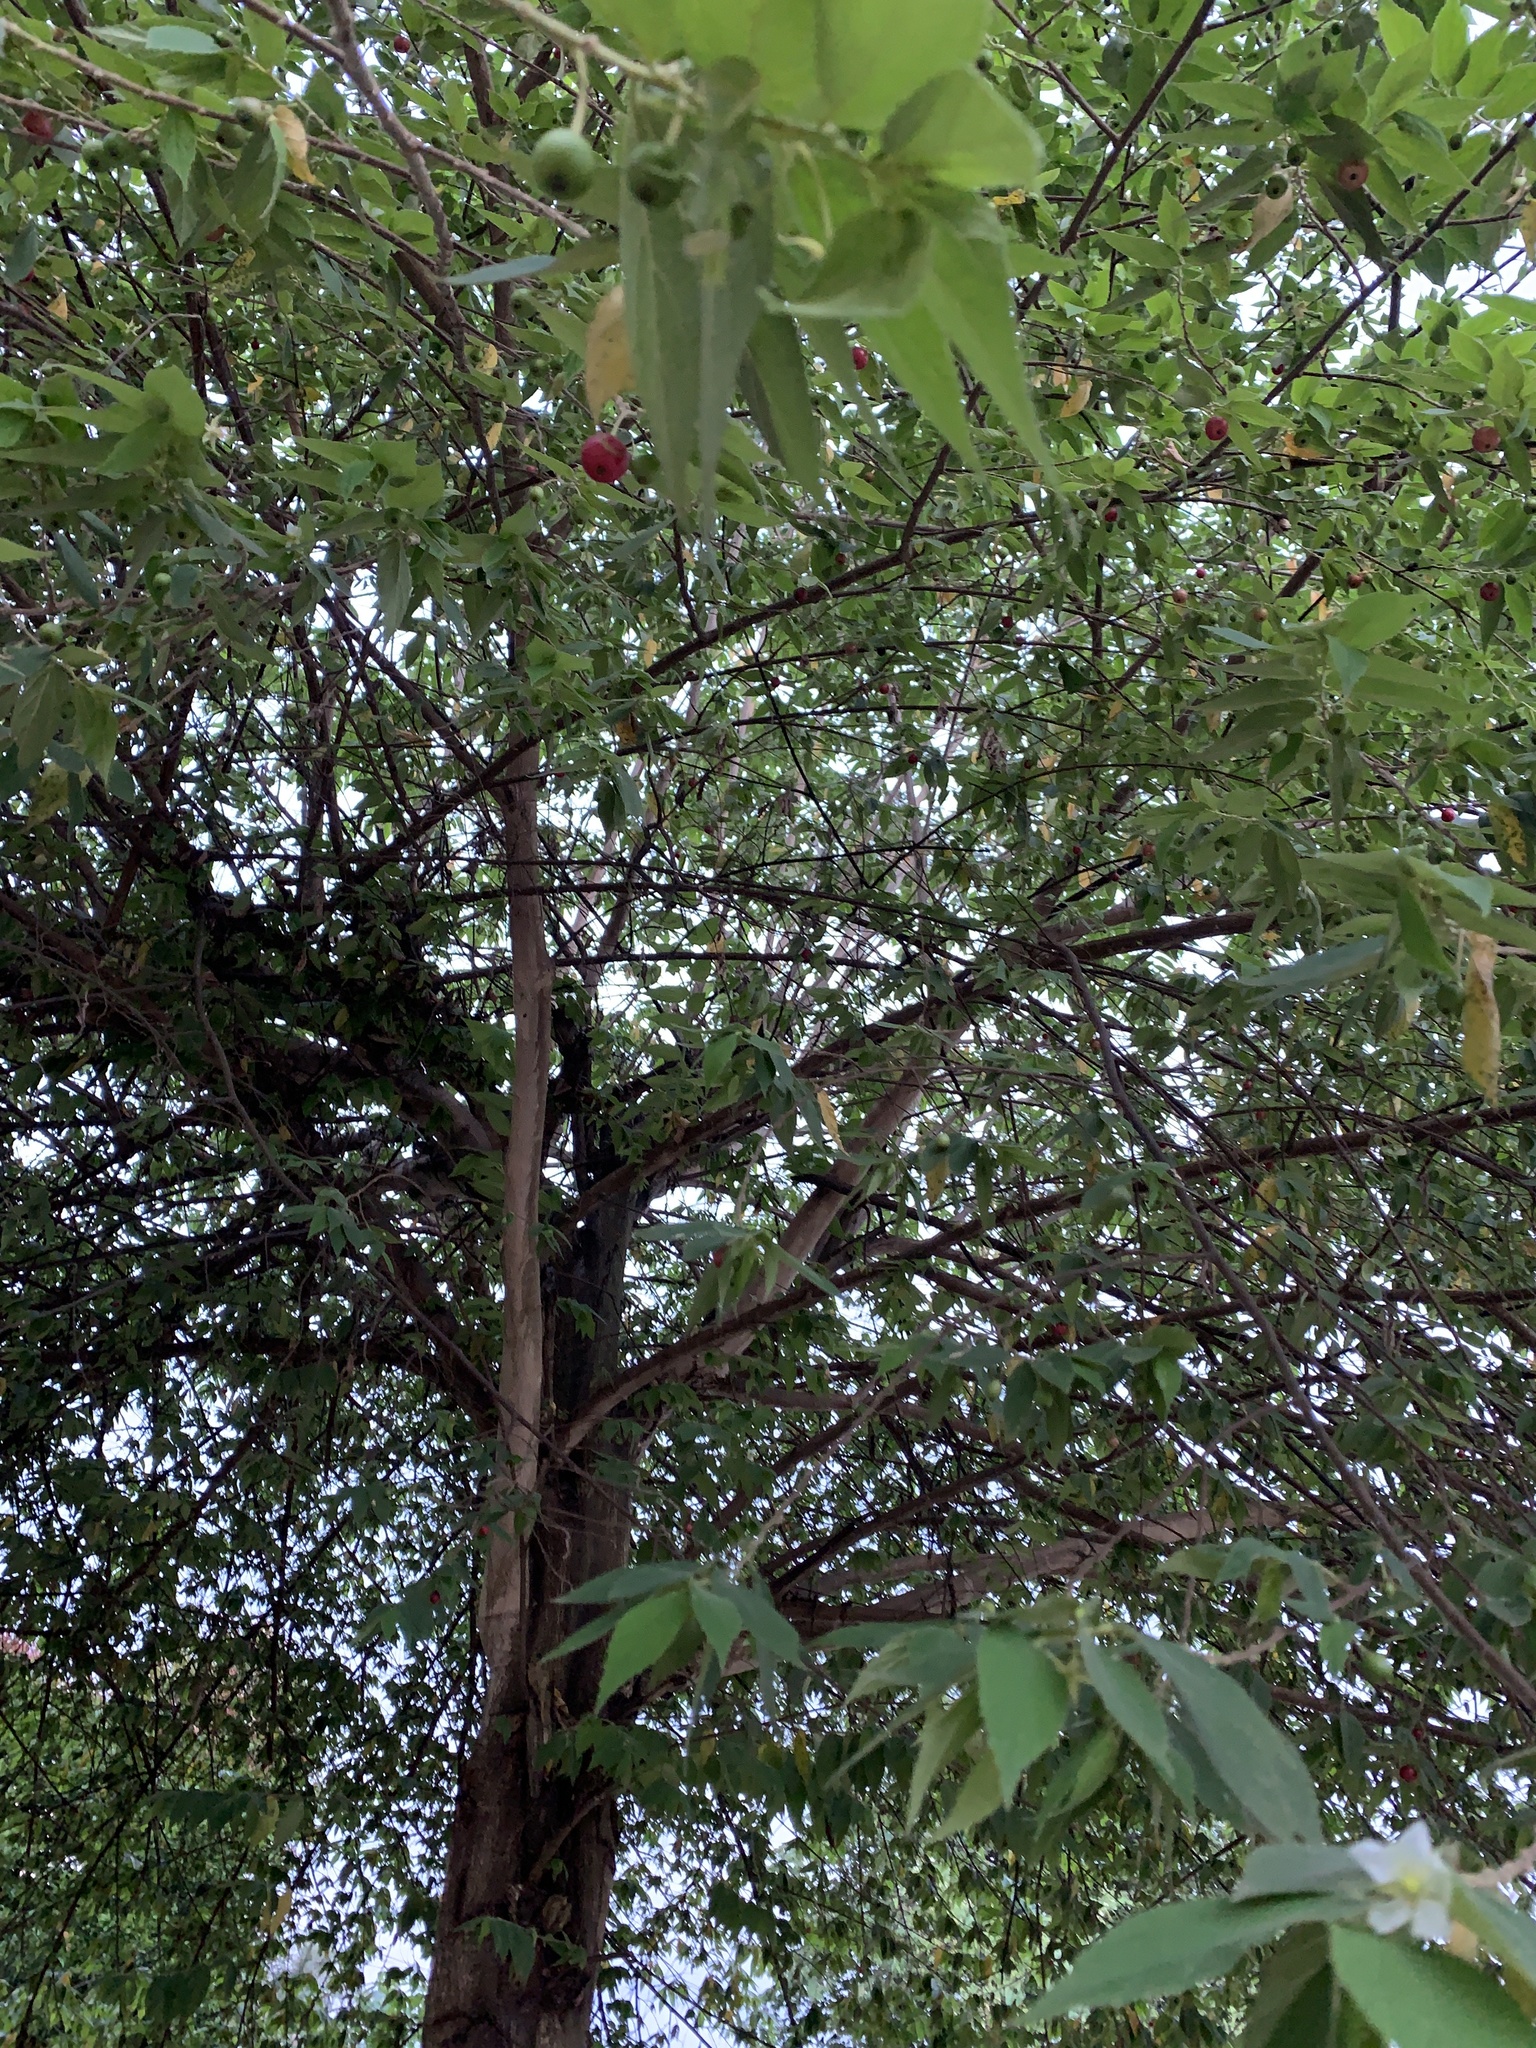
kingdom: Plantae
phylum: Tracheophyta
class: Magnoliopsida
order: Malvales
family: Muntingiaceae
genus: Muntingia
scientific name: Muntingia calabura
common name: Strawberrytree
